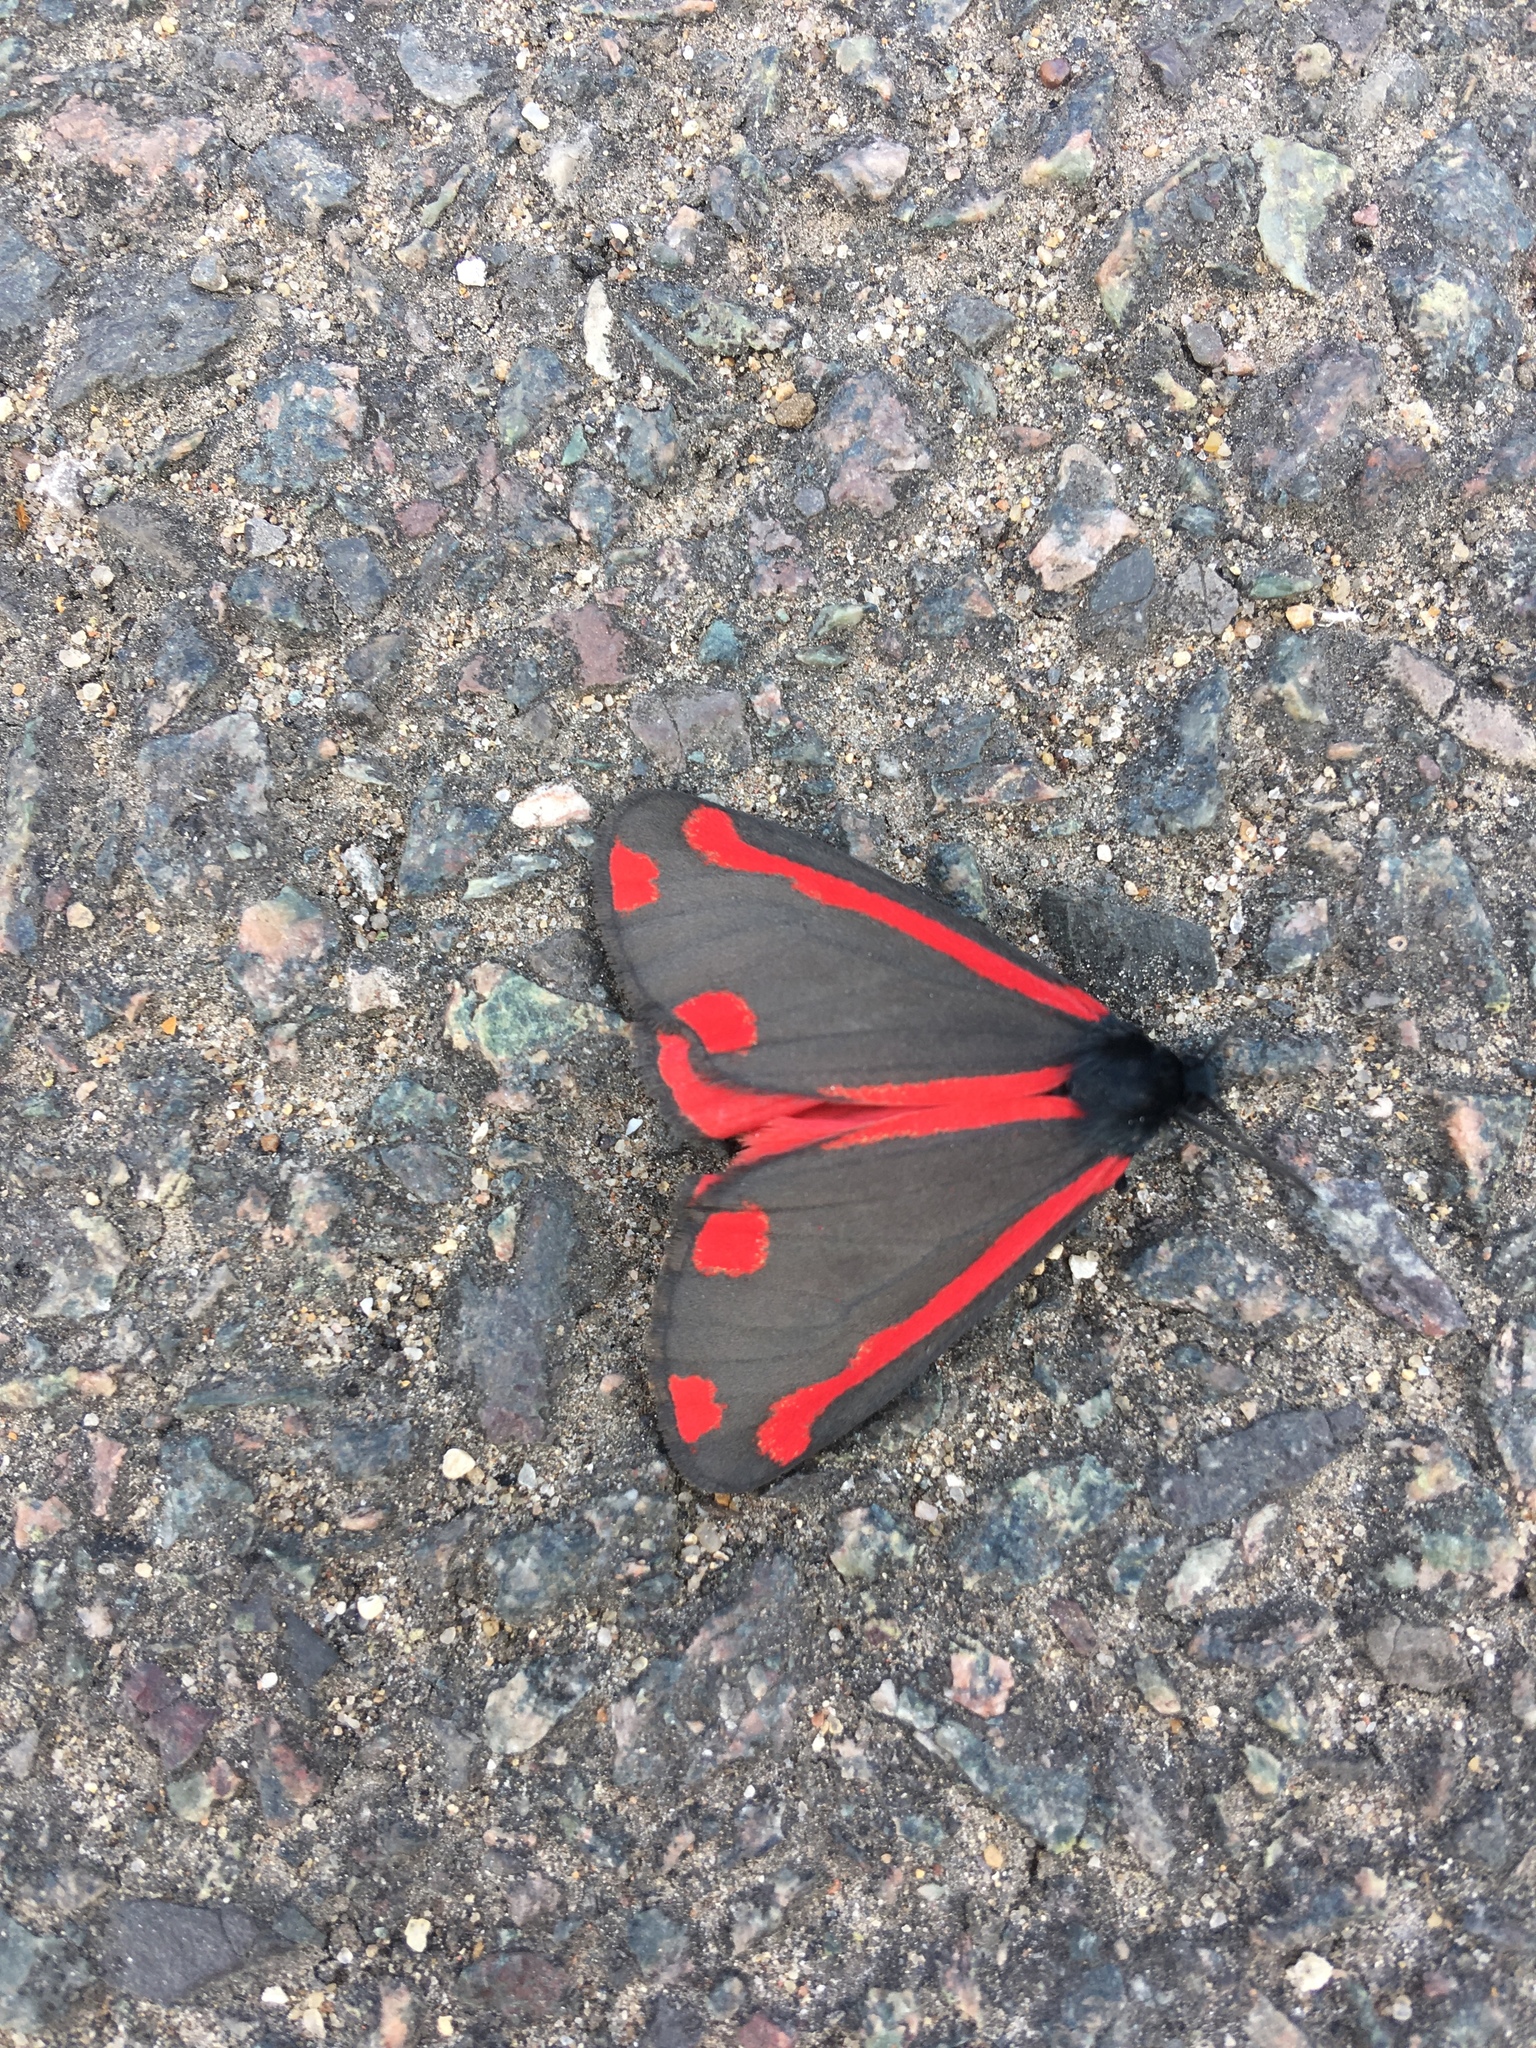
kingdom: Animalia
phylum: Arthropoda
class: Insecta
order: Lepidoptera
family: Erebidae
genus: Tyria
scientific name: Tyria jacobaeae
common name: Cinnabar
